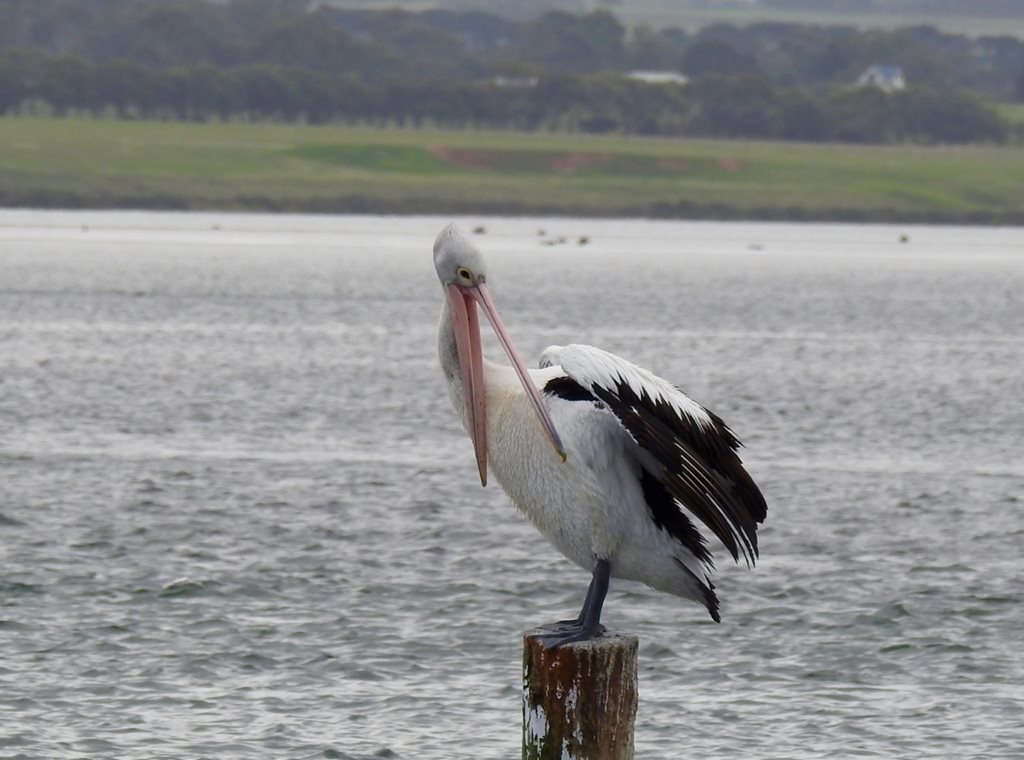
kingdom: Animalia
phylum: Chordata
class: Aves
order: Pelecaniformes
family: Pelecanidae
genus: Pelecanus
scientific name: Pelecanus conspicillatus
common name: Australian pelican
